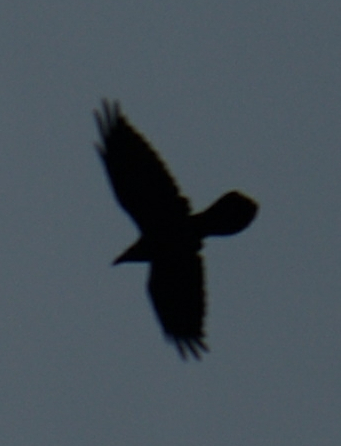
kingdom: Animalia
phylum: Chordata
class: Aves
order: Passeriformes
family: Corvidae
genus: Corvus
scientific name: Corvus corax
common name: Common raven
